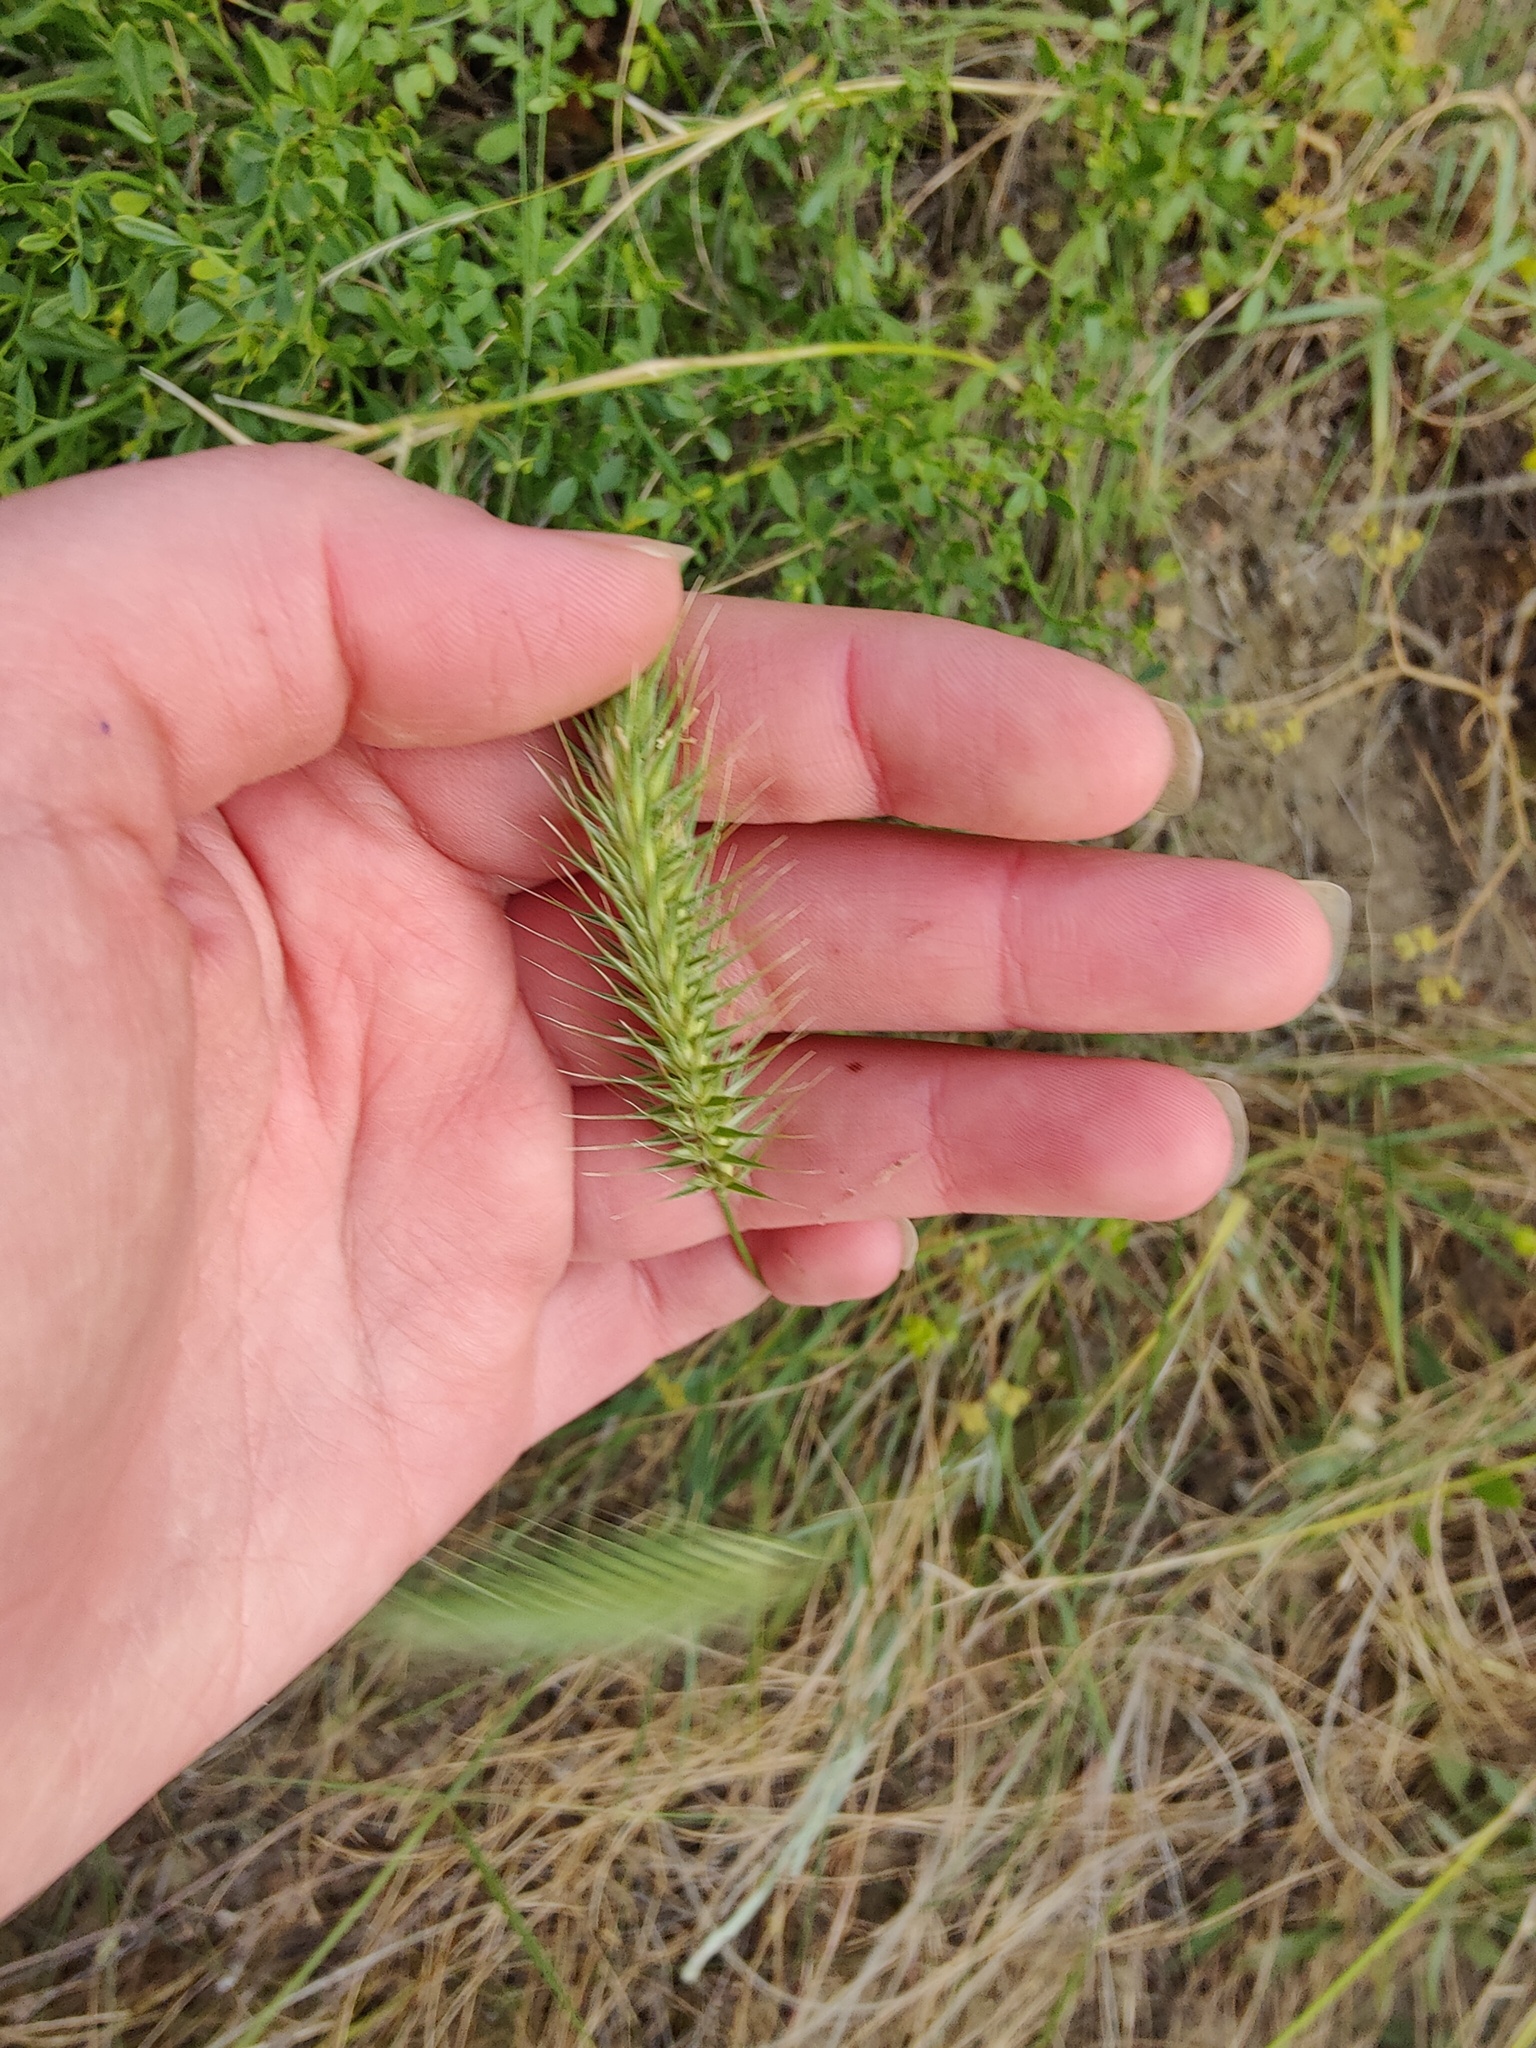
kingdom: Plantae
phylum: Tracheophyta
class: Liliopsida
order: Poales
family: Poaceae
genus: Agropyron
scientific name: Agropyron cristatum
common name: Crested wheatgrass
